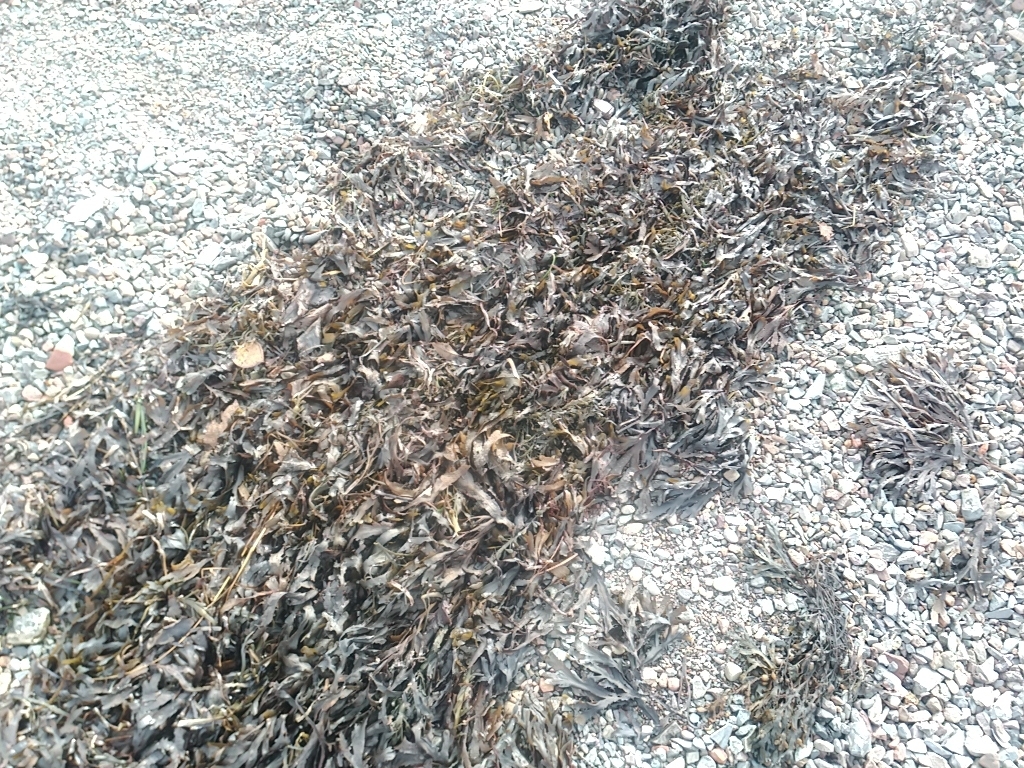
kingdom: Chromista
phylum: Ochrophyta
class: Phaeophyceae
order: Fucales
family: Fucaceae
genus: Fucus
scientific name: Fucus serratus
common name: Toothed wrack
